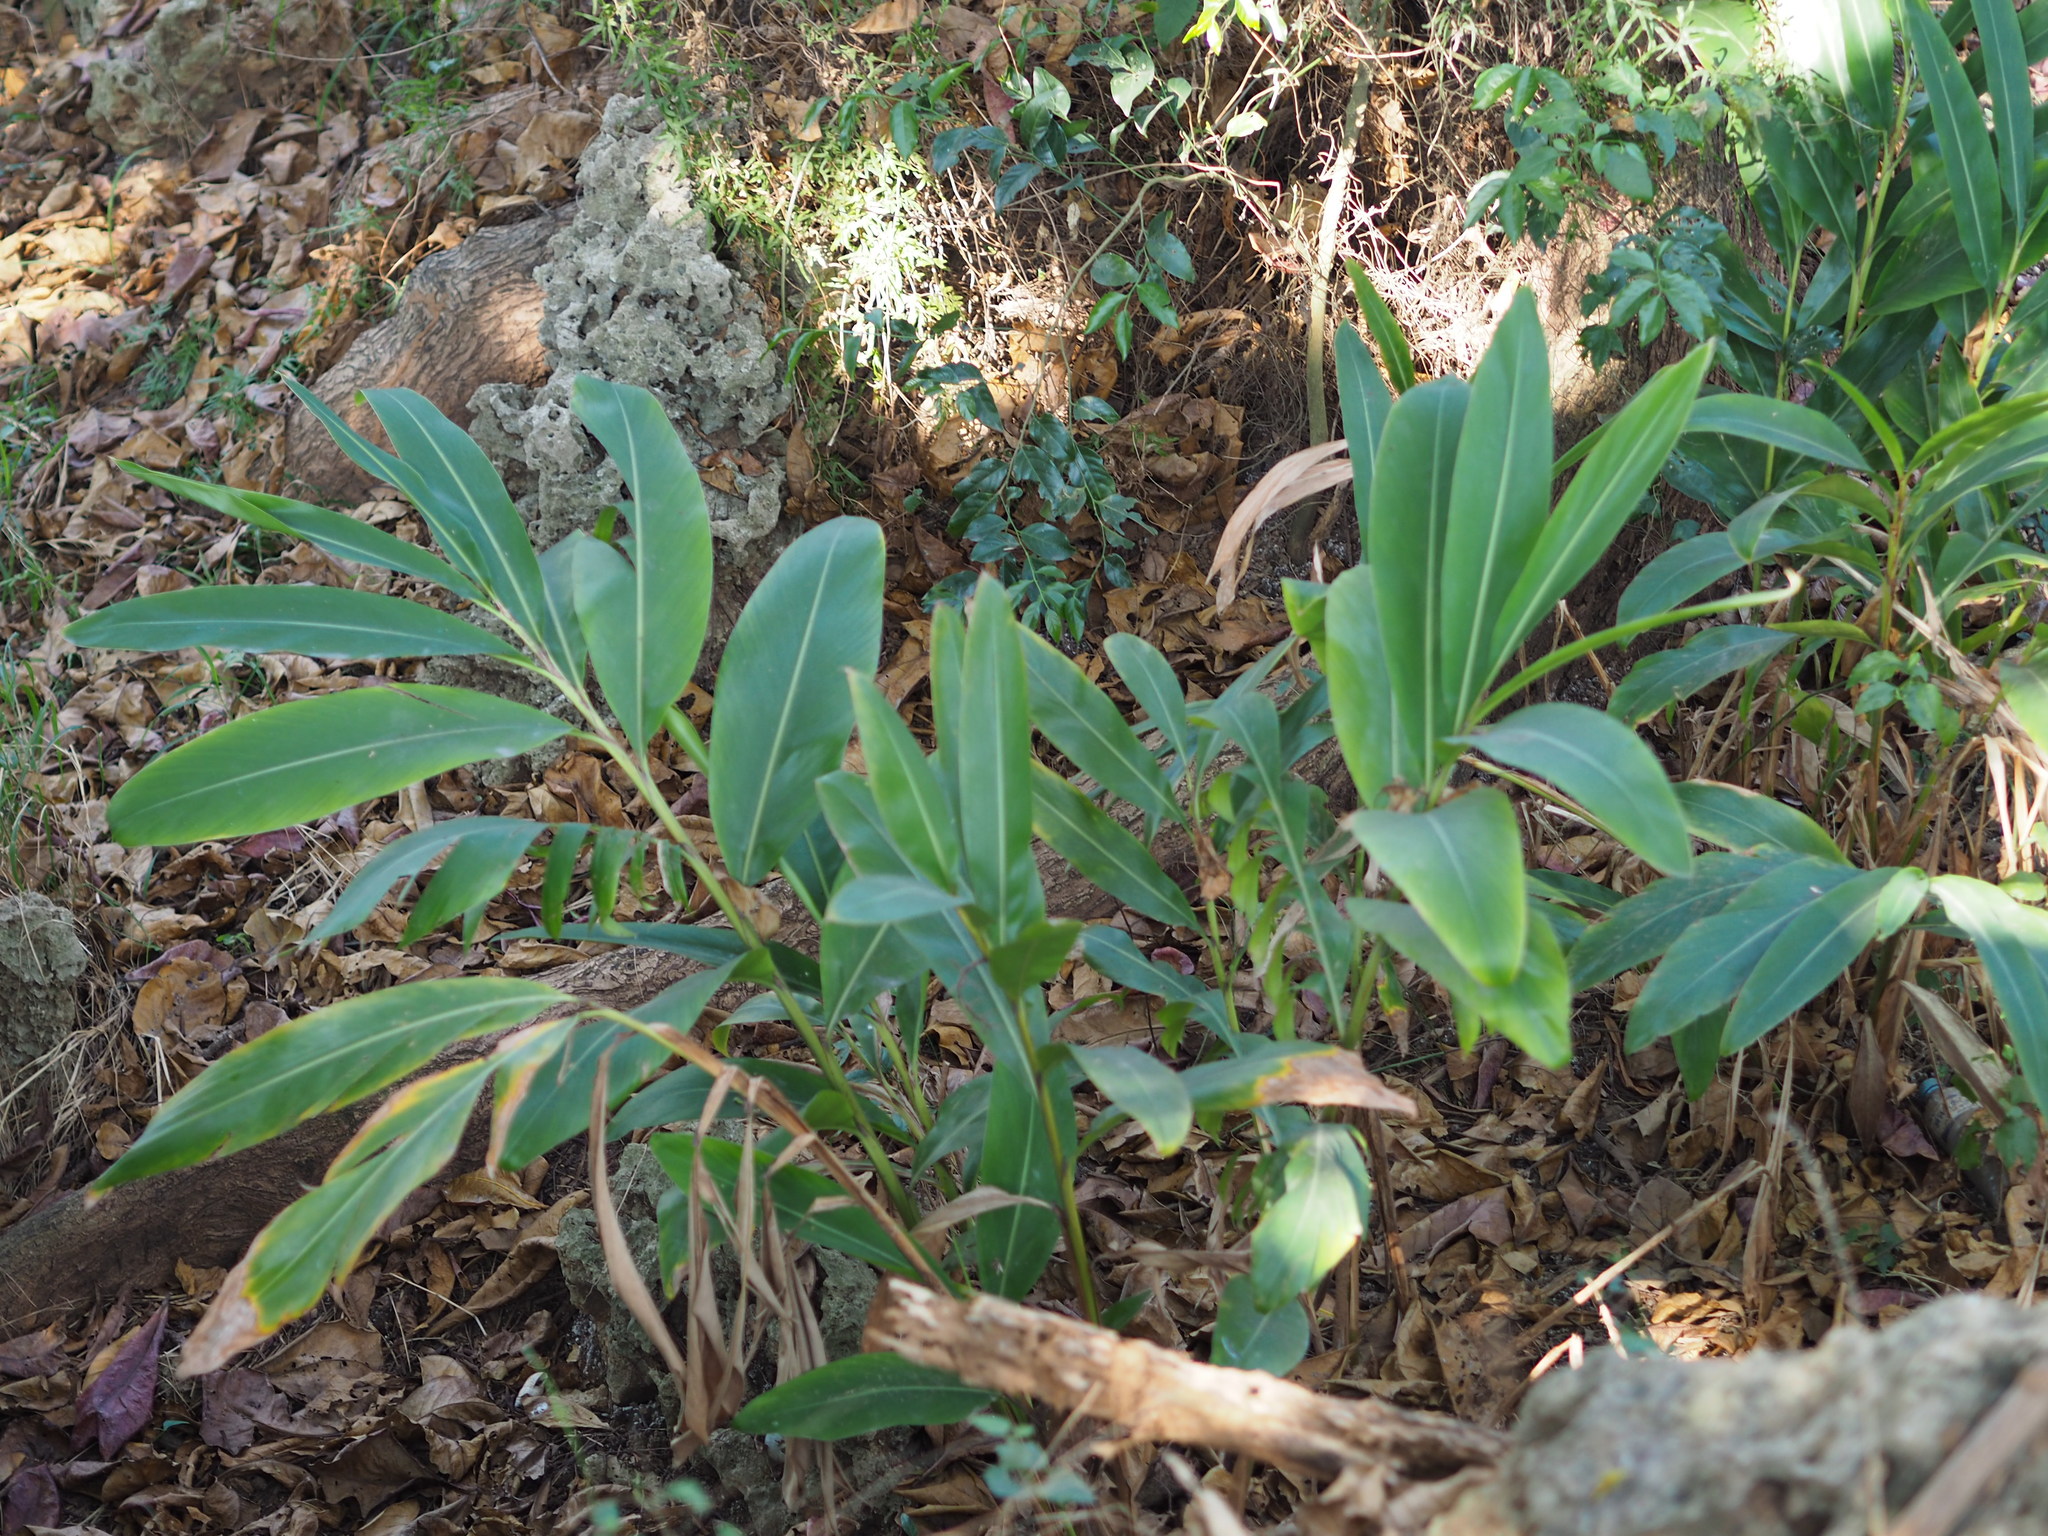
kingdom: Plantae
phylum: Tracheophyta
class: Liliopsida
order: Zingiberales
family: Zingiberaceae
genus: Alpinia
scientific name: Alpinia zerumbet
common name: Shellplant
